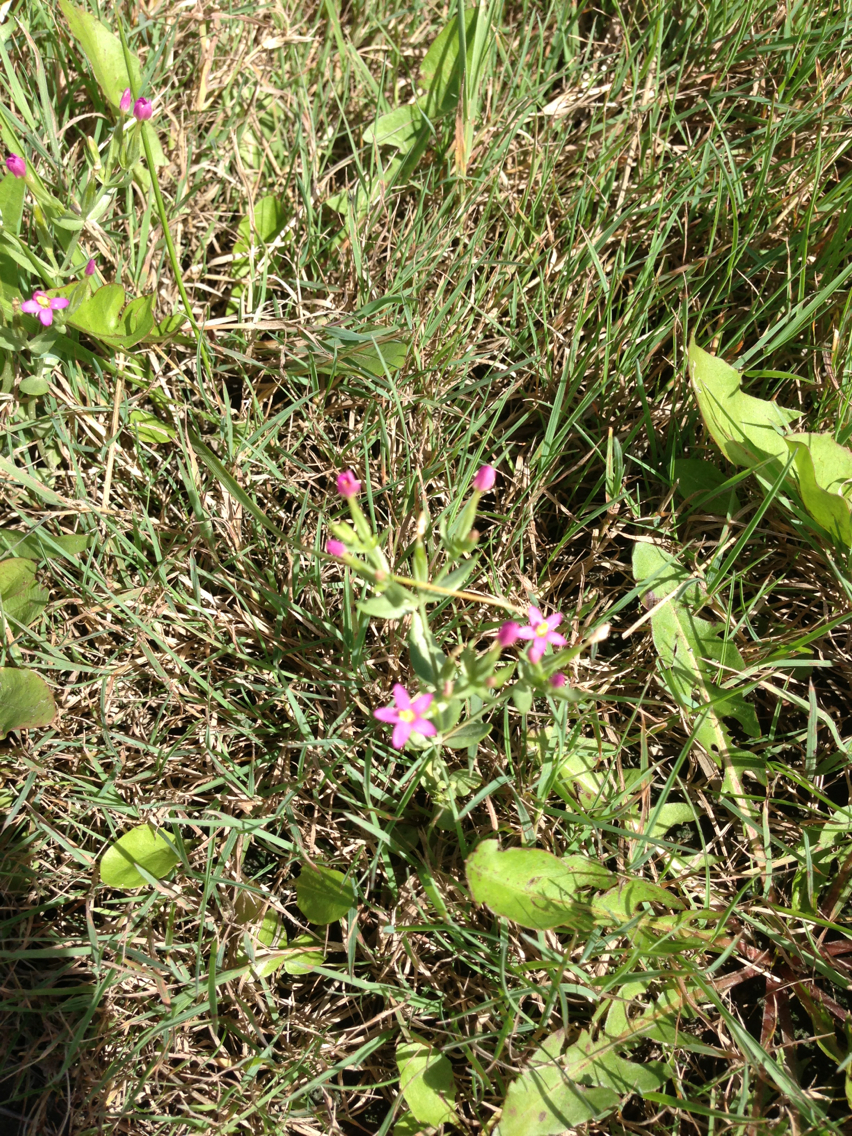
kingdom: Plantae
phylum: Tracheophyta
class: Magnoliopsida
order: Gentianales
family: Gentianaceae
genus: Centaurium
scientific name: Centaurium erythraea
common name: Common centaury
